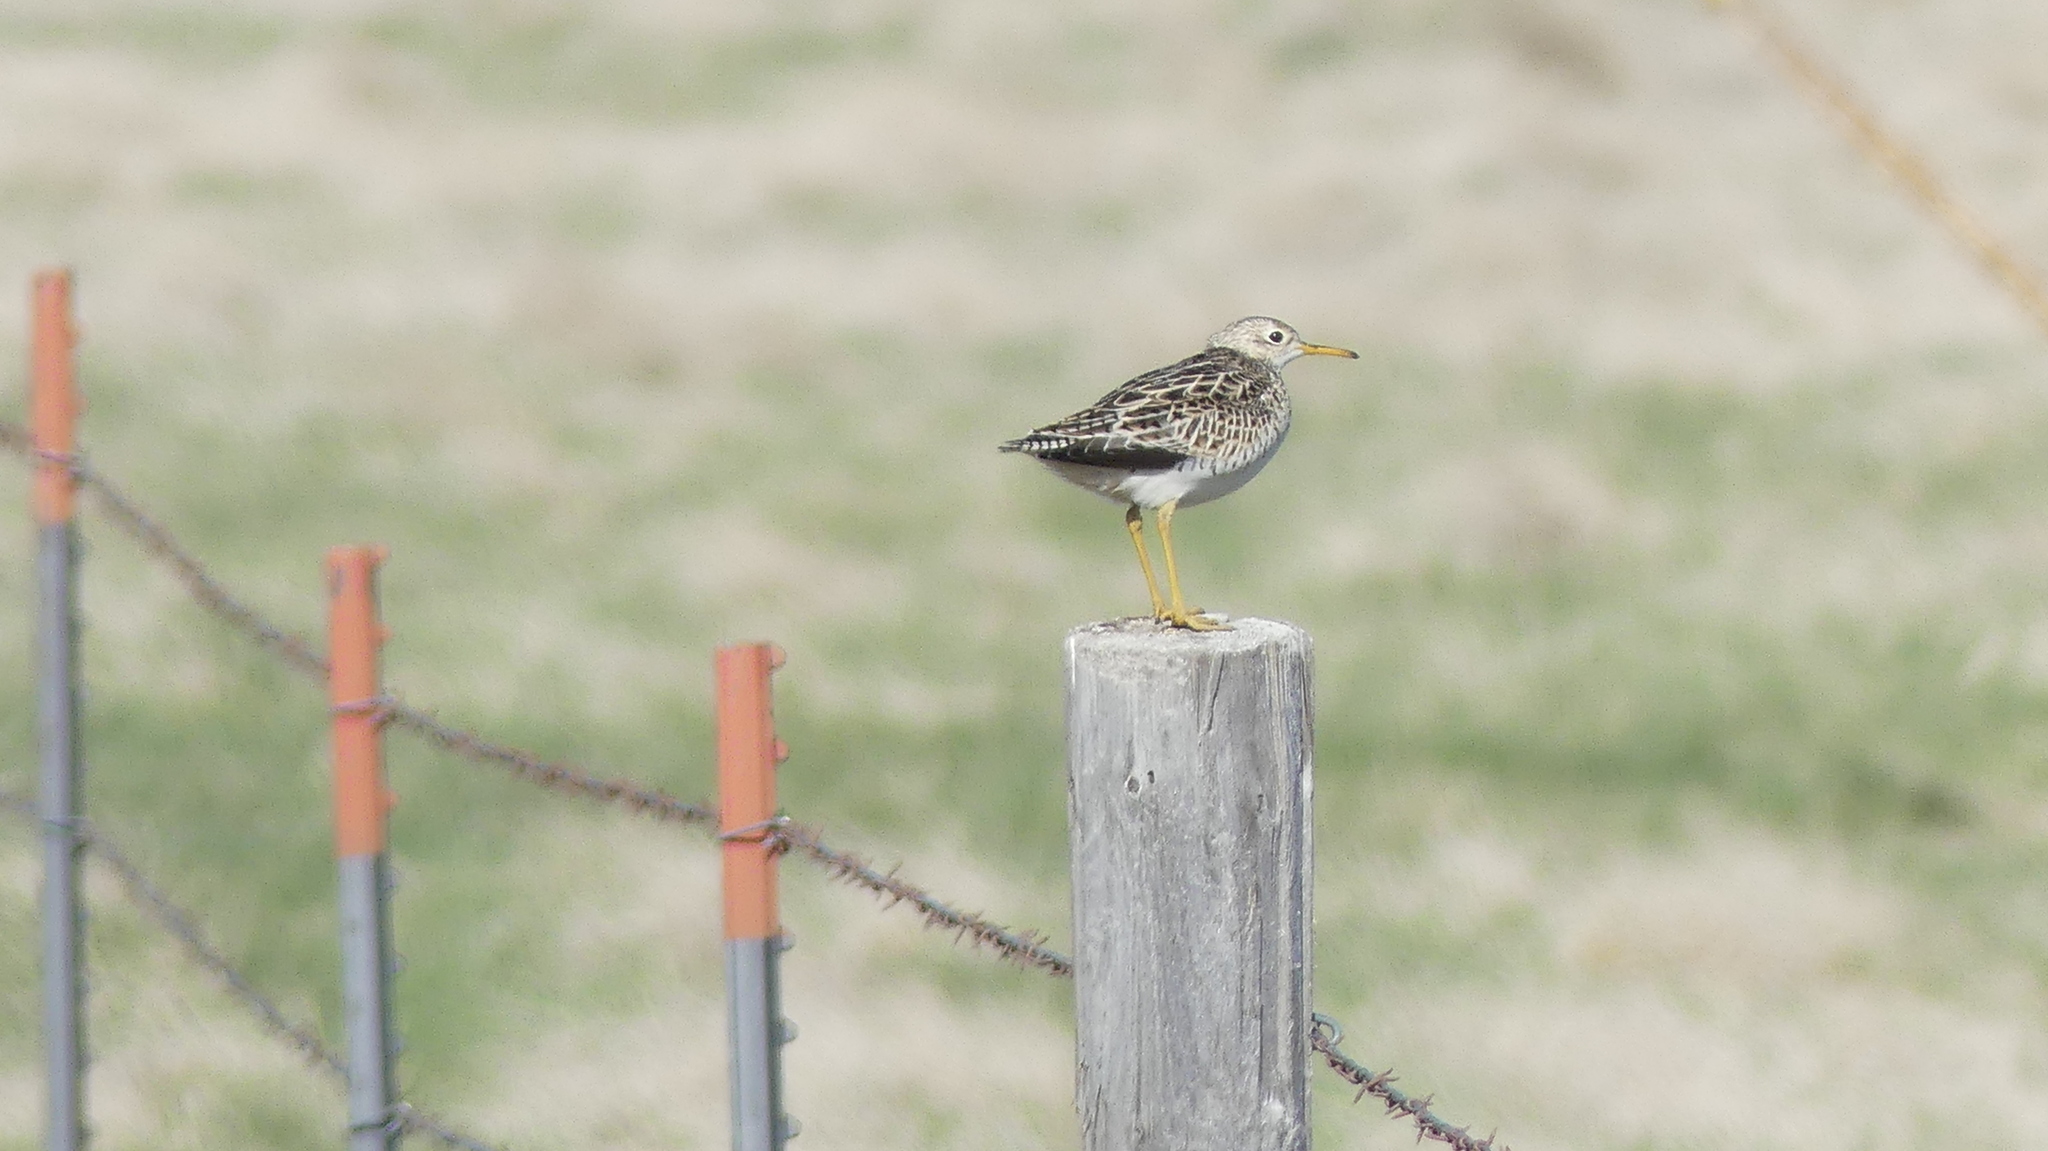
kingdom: Animalia
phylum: Chordata
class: Aves
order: Charadriiformes
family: Scolopacidae
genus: Bartramia
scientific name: Bartramia longicauda
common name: Upland sandpiper
